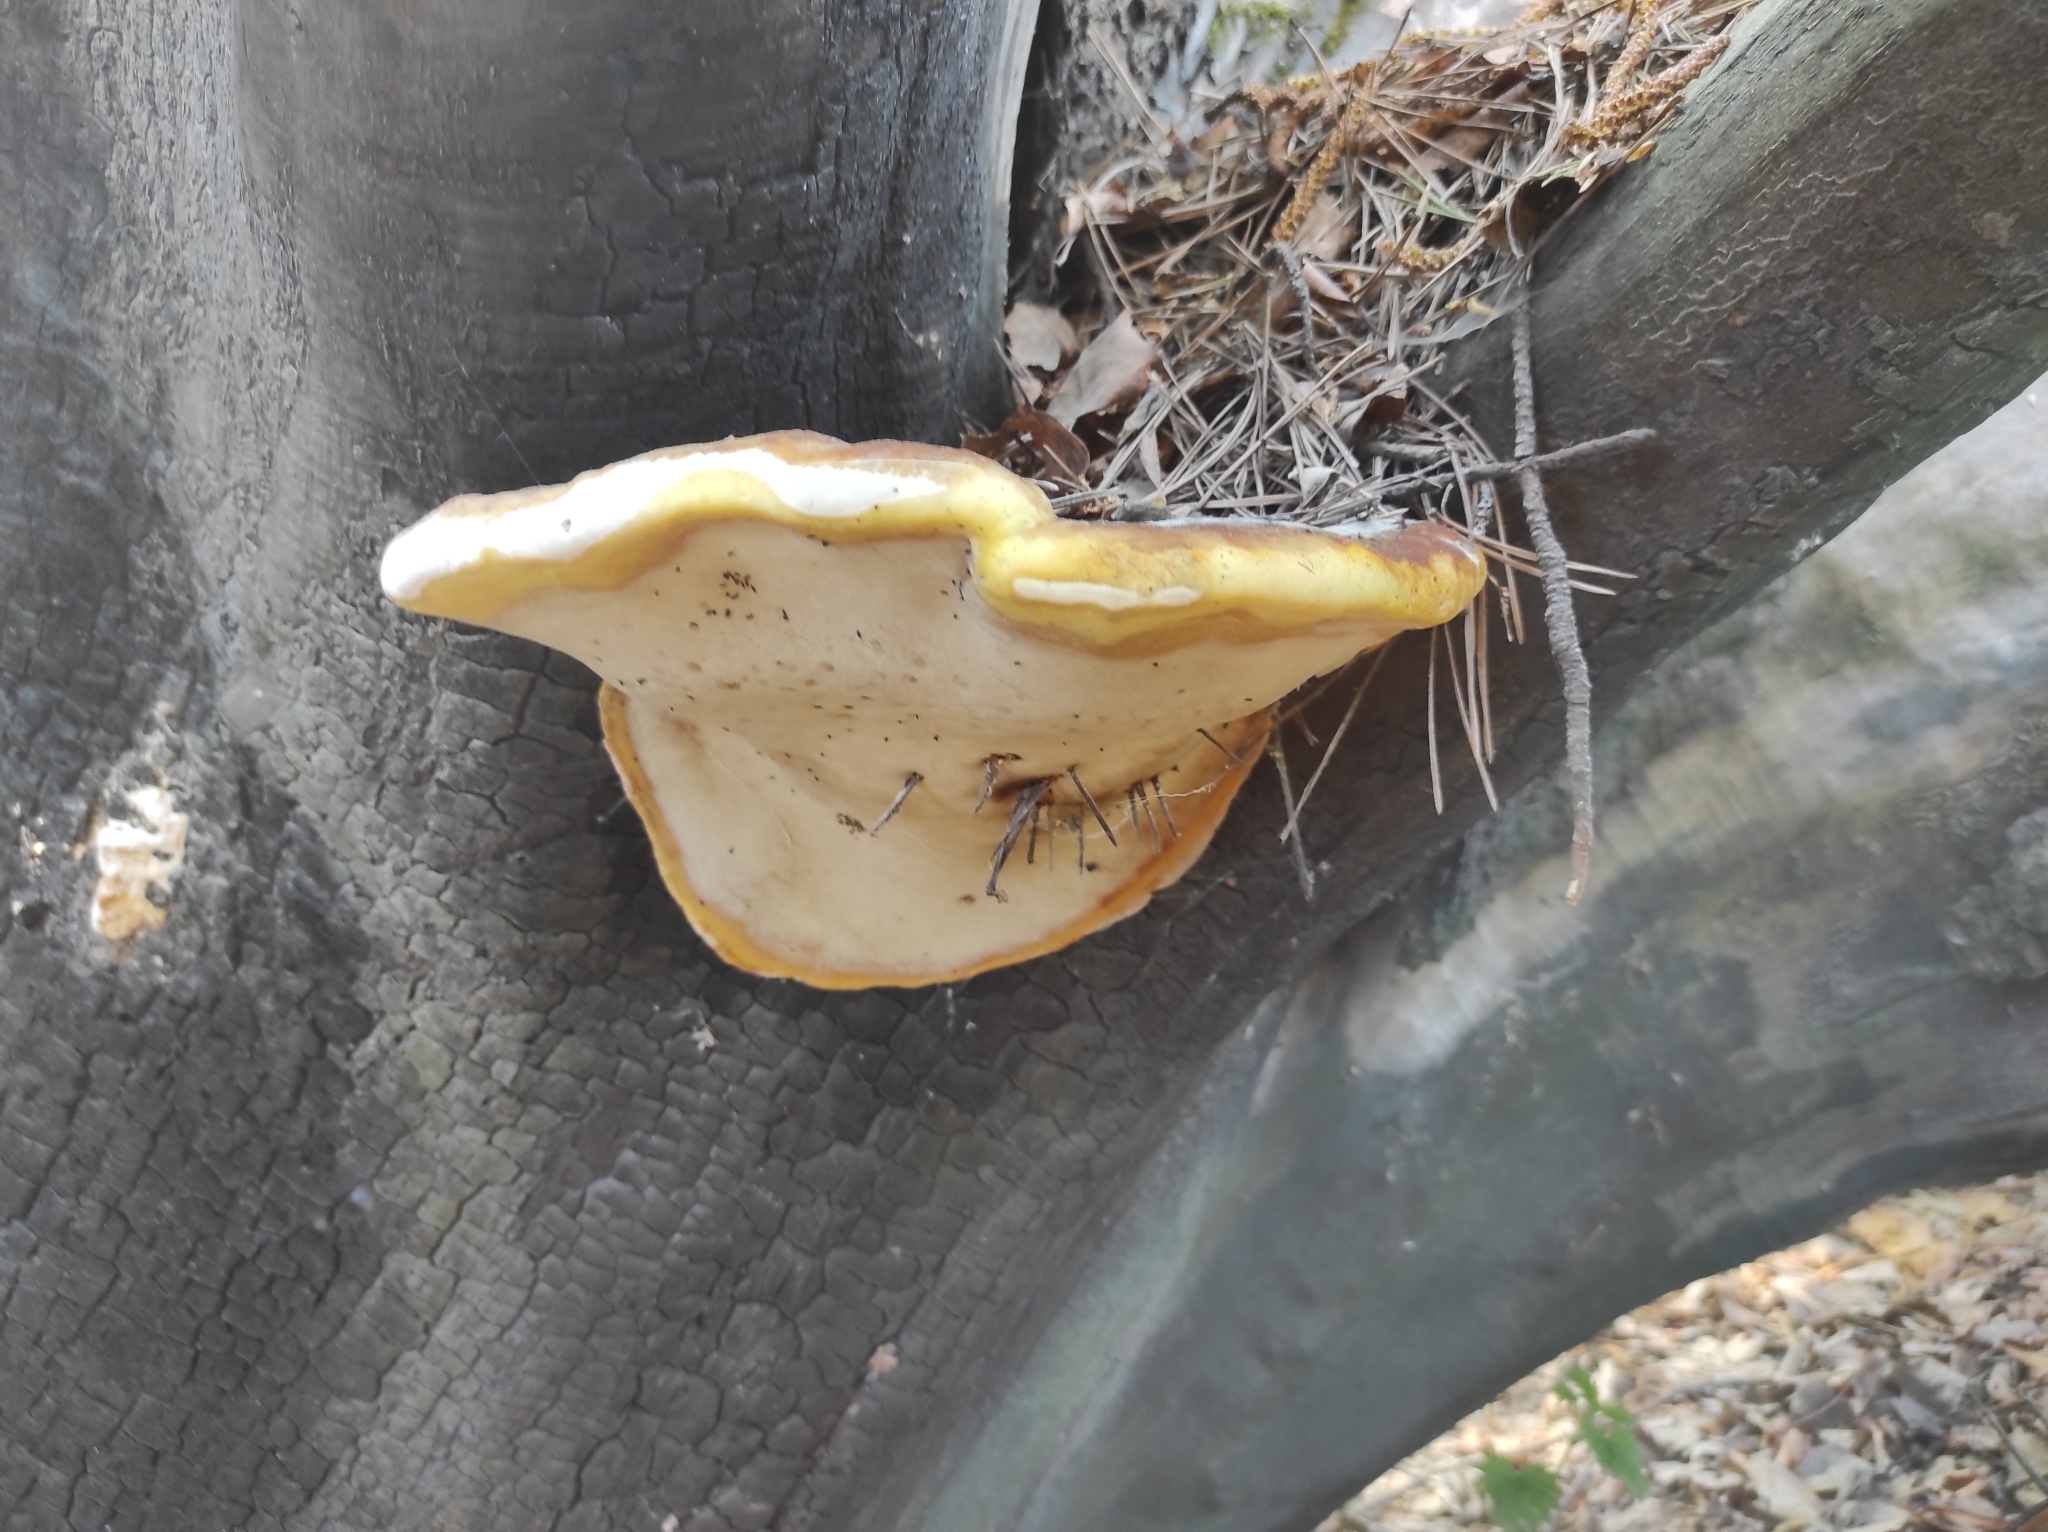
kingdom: Fungi
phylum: Basidiomycota
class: Agaricomycetes
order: Polyporales
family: Fomitopsidaceae
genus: Fomitopsis
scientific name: Fomitopsis pinicola
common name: Red-belted bracket
